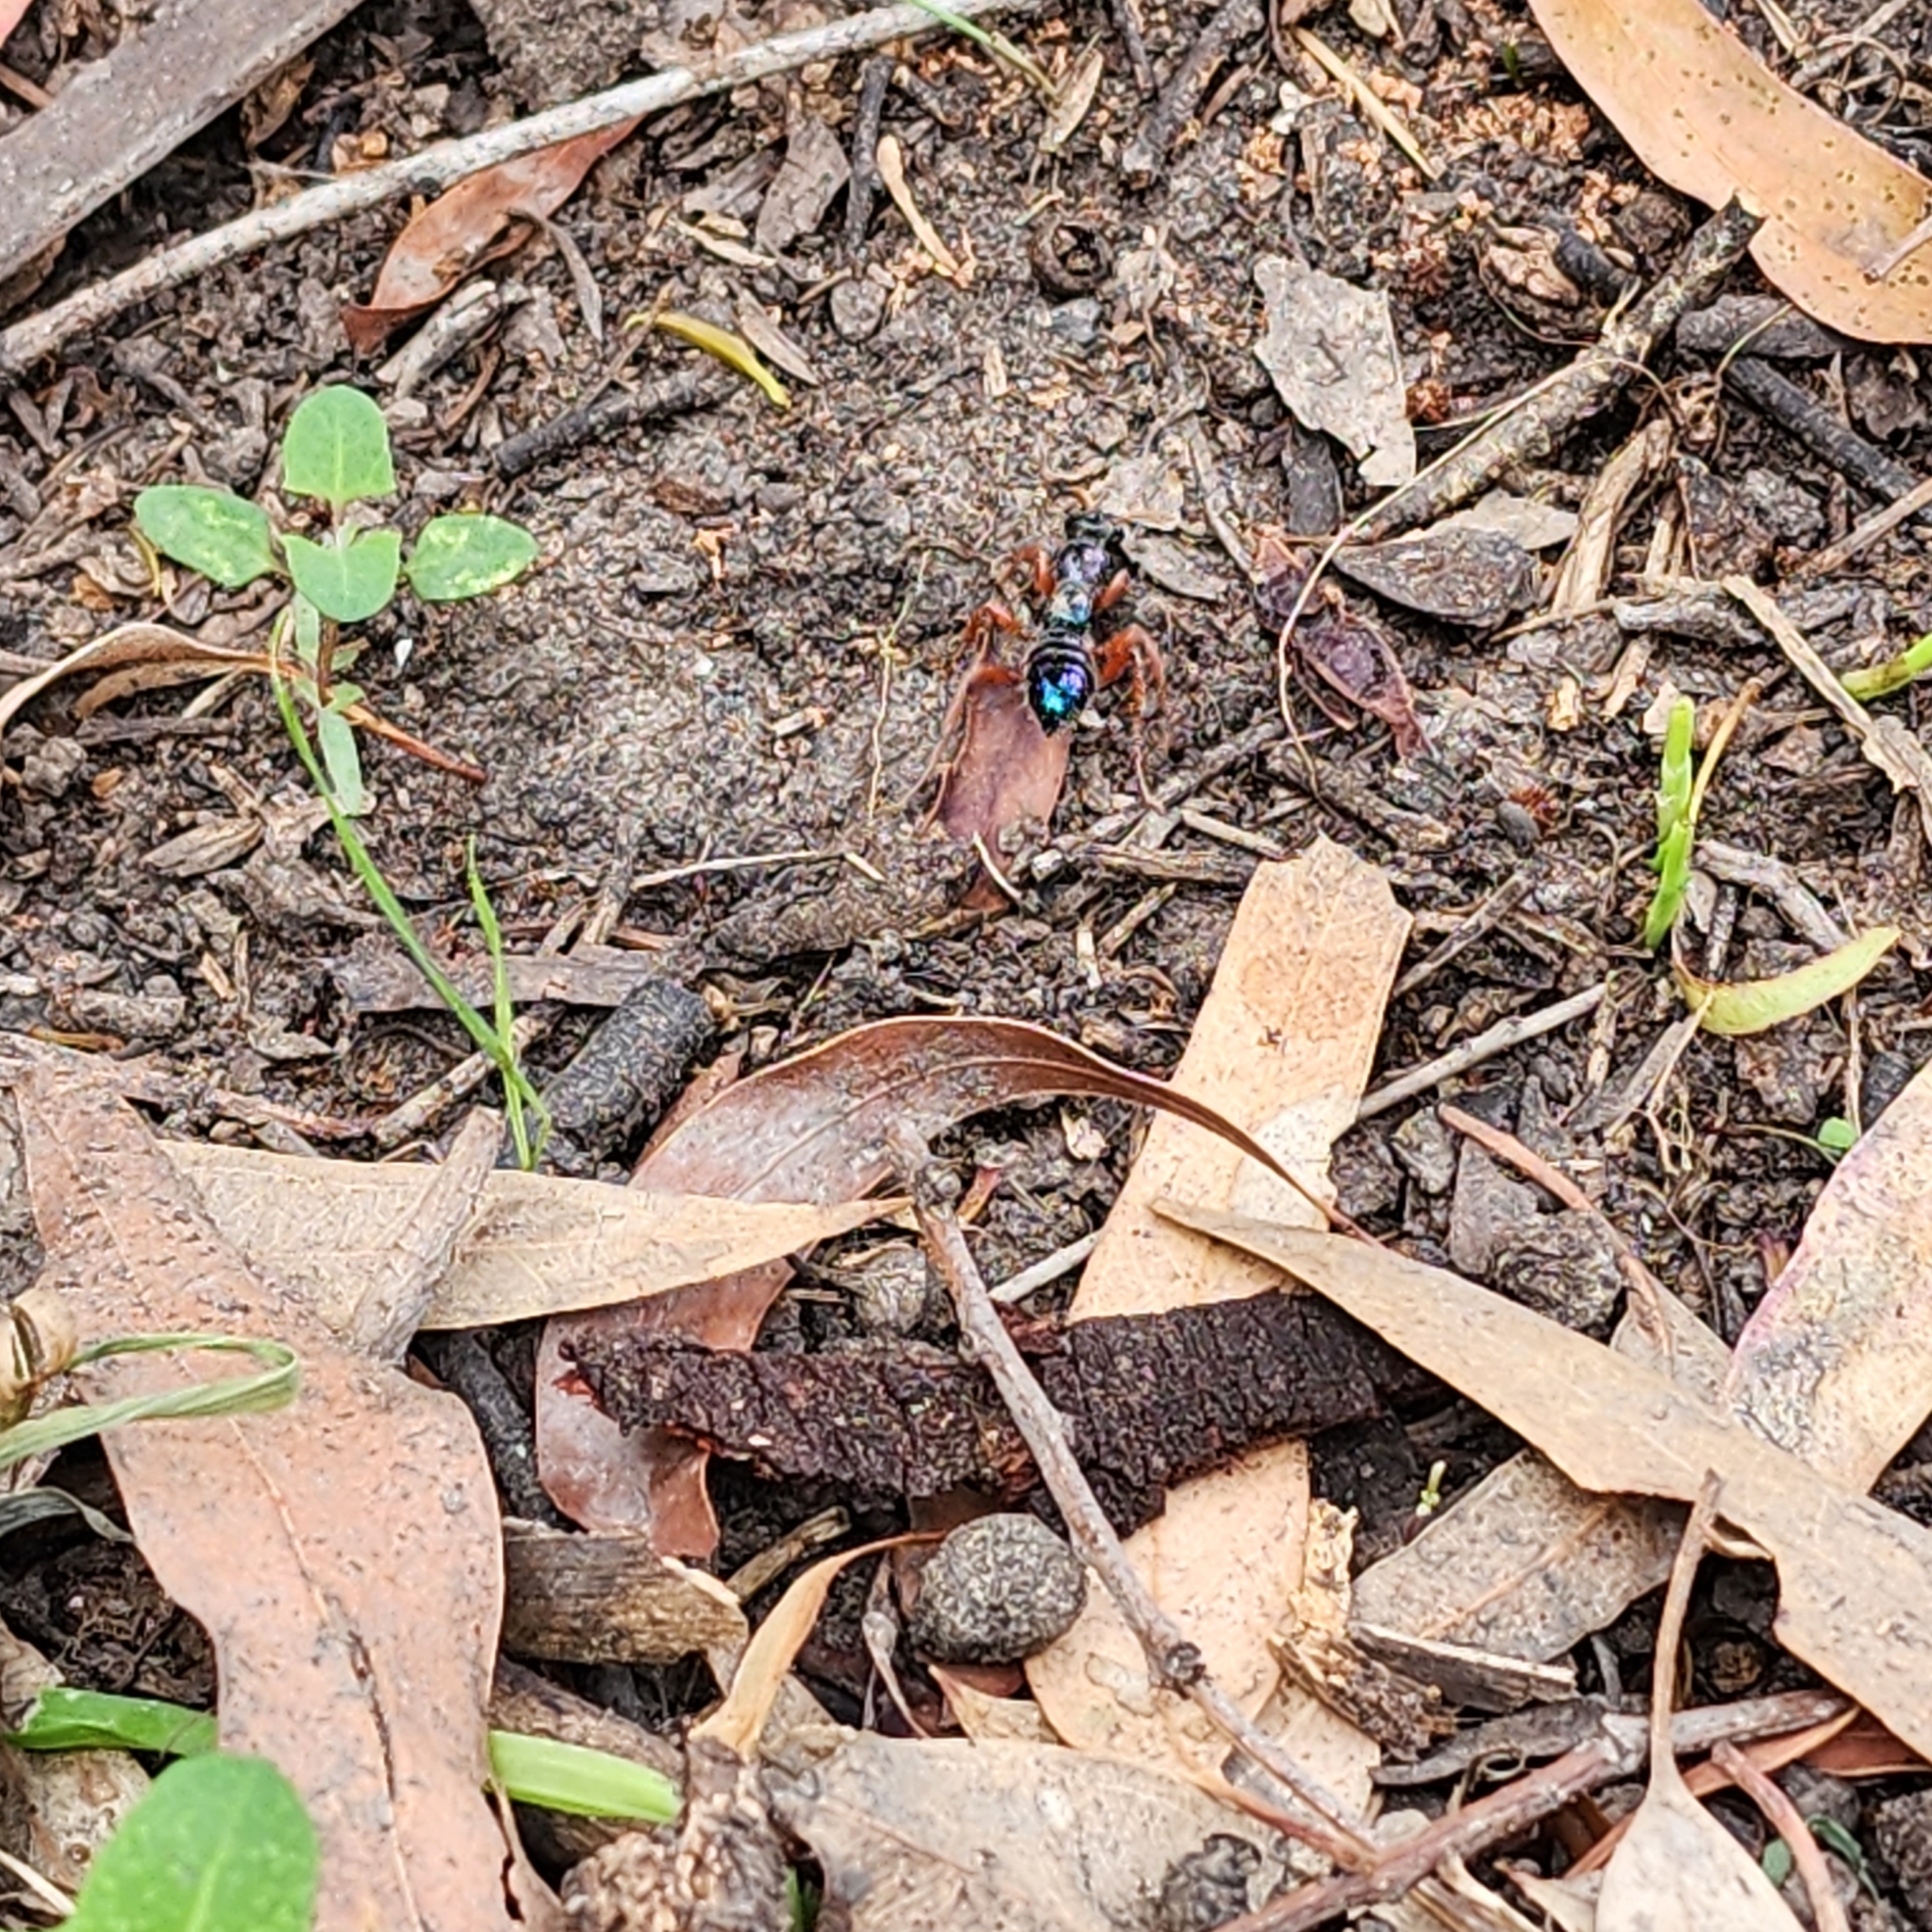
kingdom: Animalia
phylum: Arthropoda
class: Insecta
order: Hymenoptera
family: Tiphiidae
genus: Diamma
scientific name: Diamma
